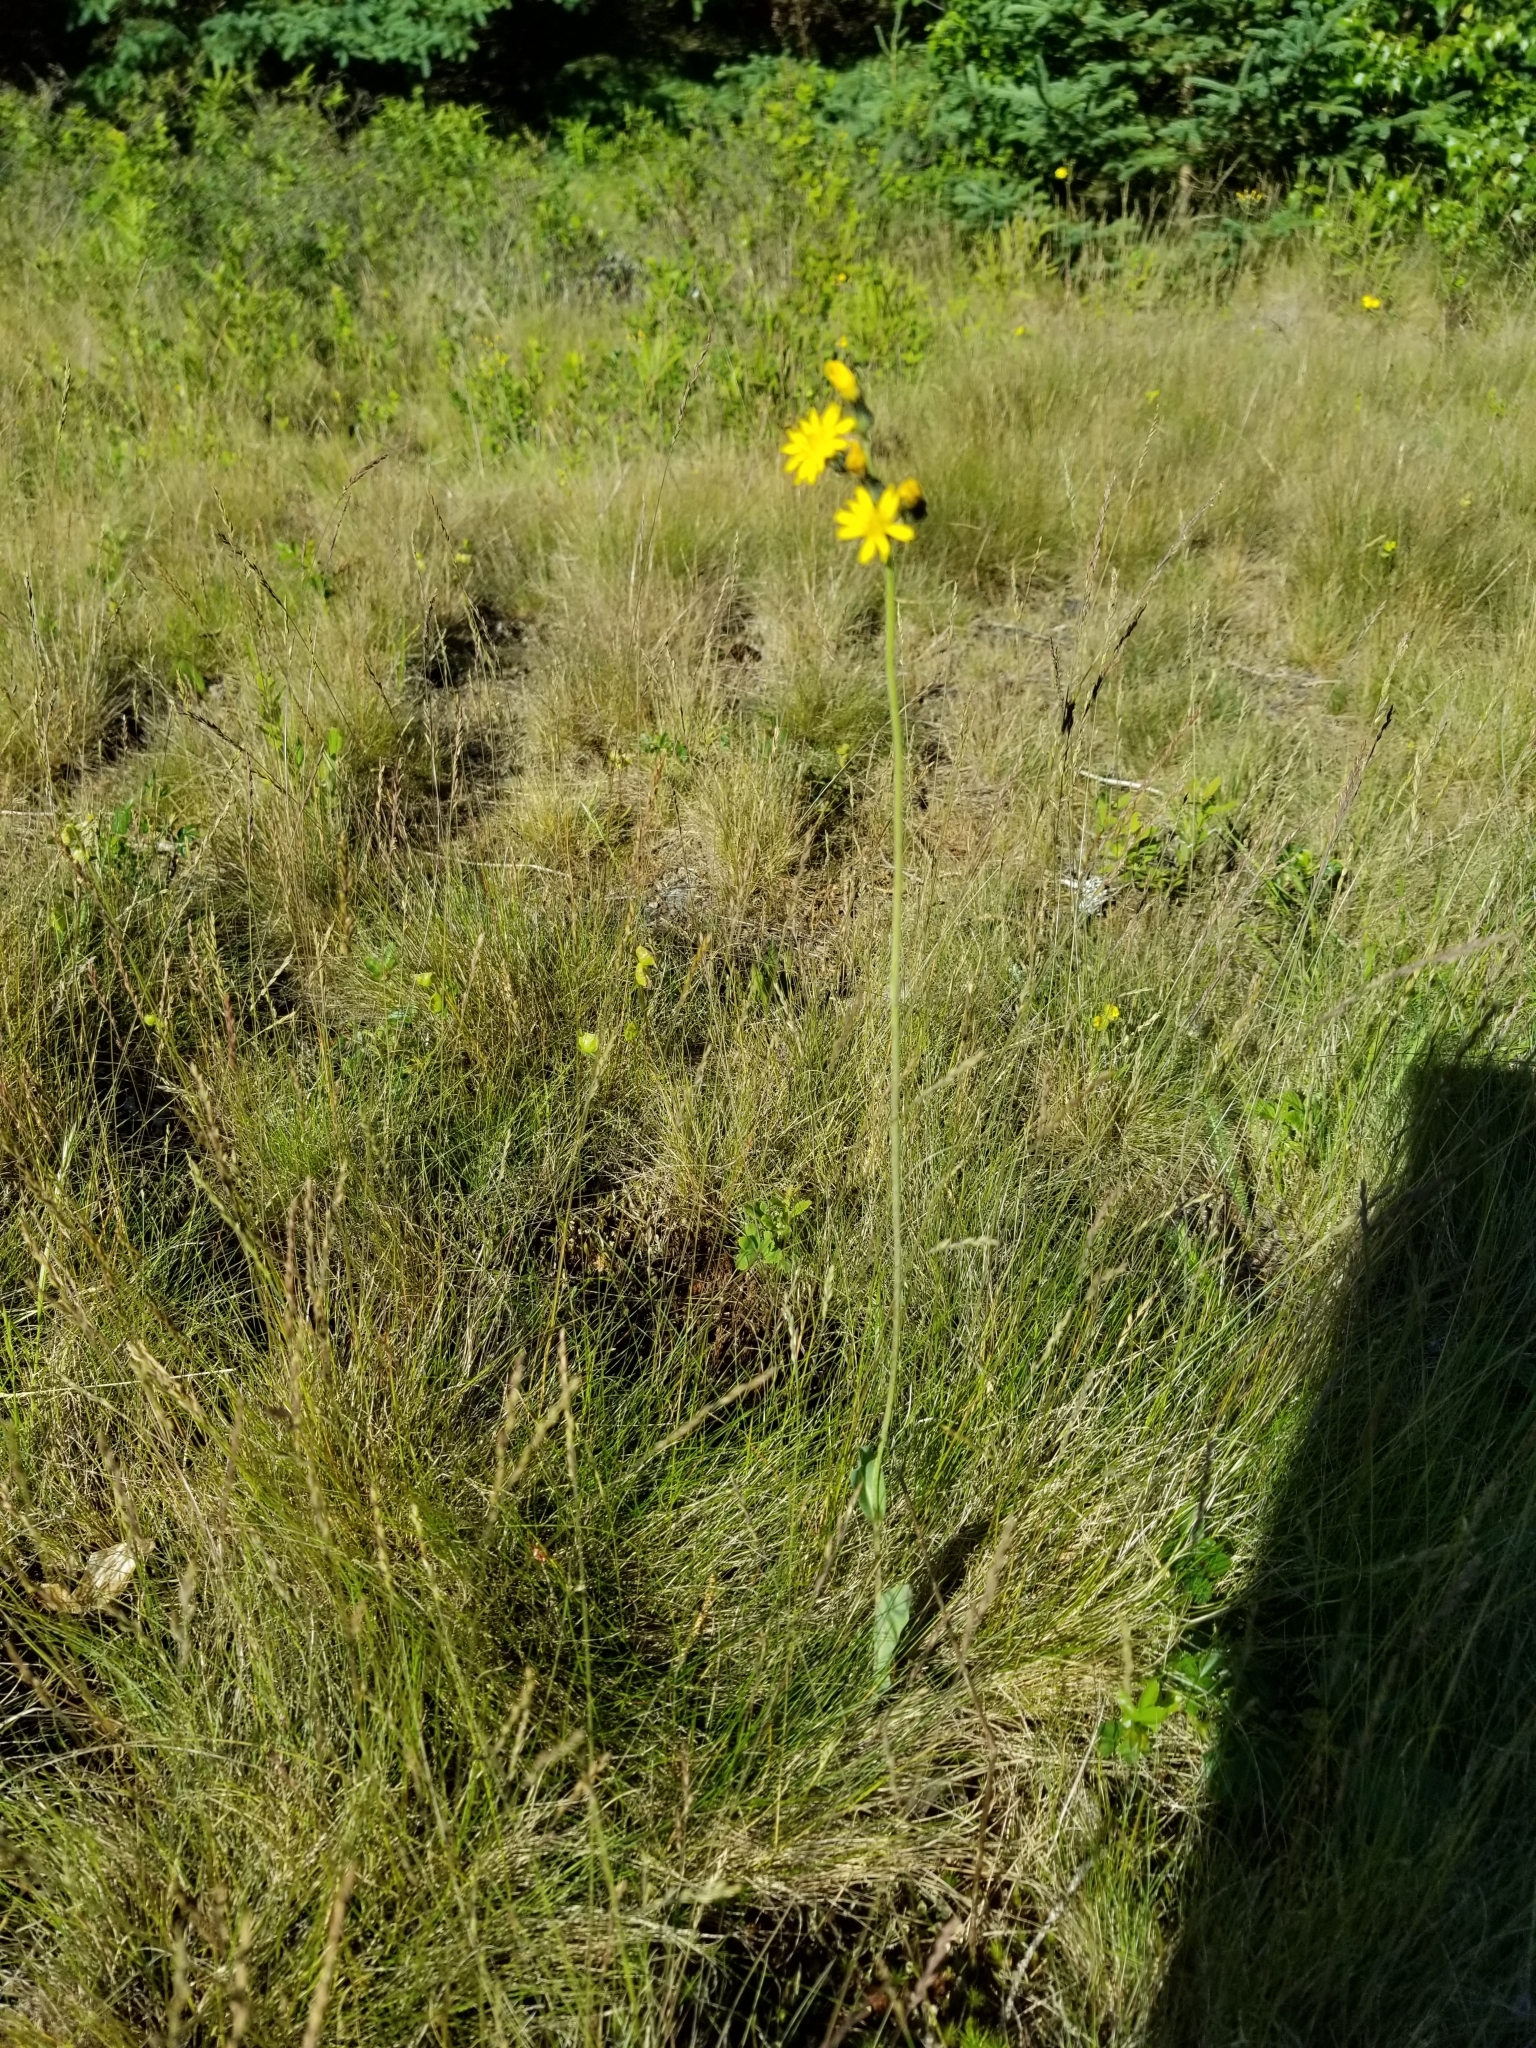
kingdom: Plantae
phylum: Tracheophyta
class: Magnoliopsida
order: Asterales
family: Asteraceae
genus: Pilosella
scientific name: Pilosella
